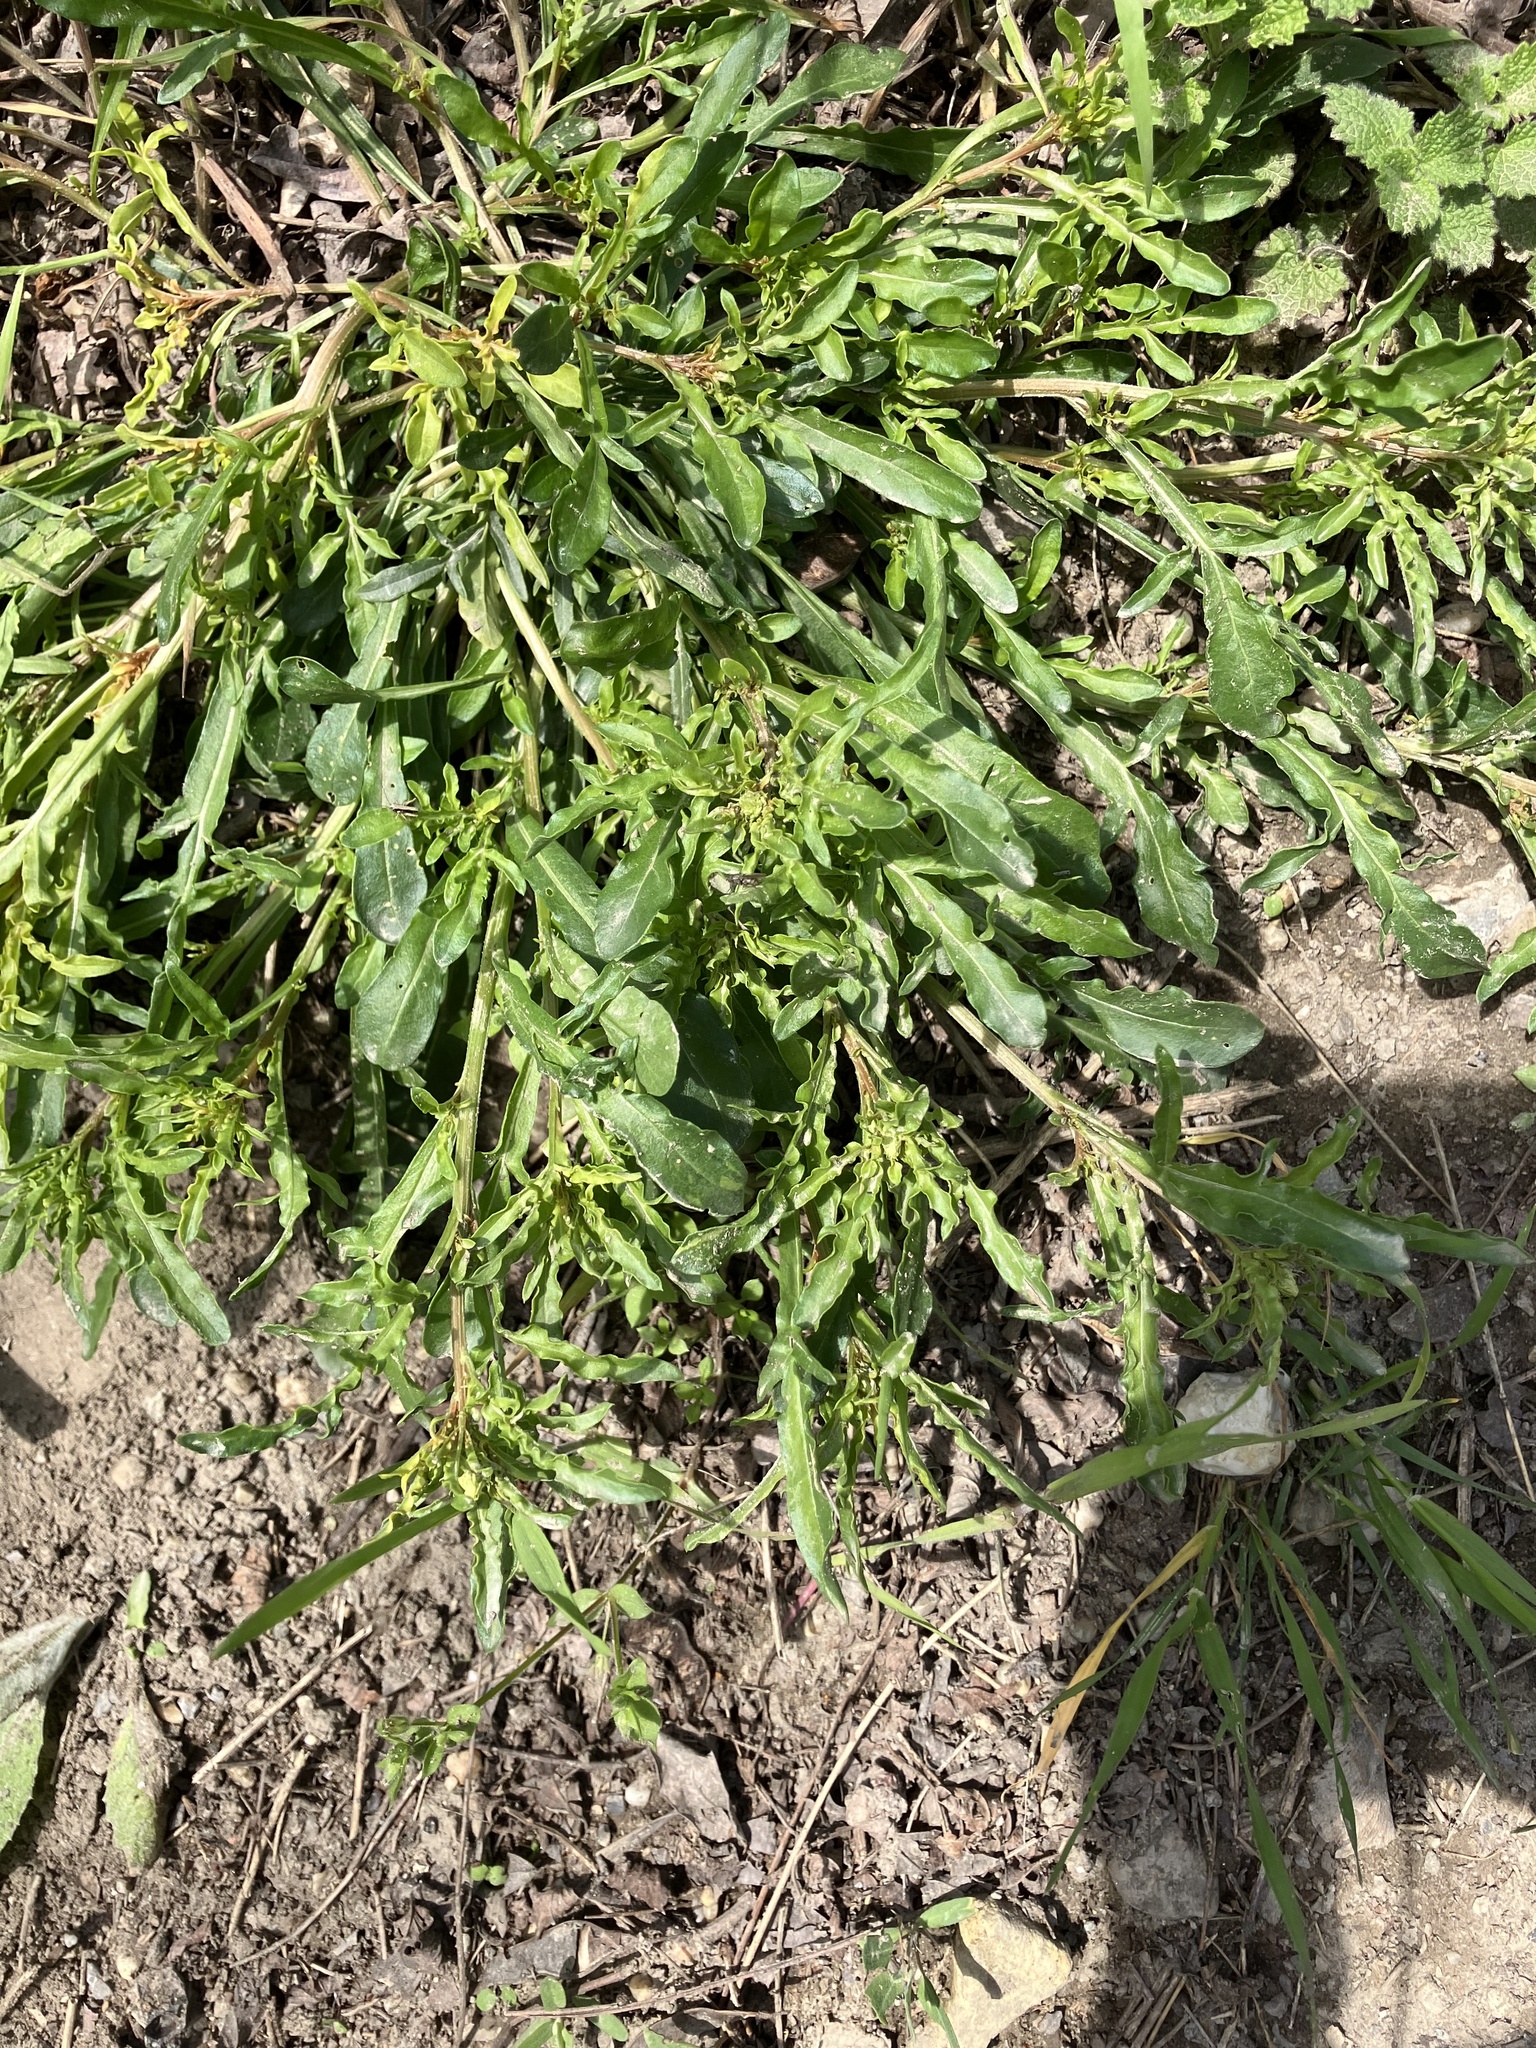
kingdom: Plantae
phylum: Tracheophyta
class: Magnoliopsida
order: Brassicales
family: Resedaceae
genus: Reseda
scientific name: Reseda lutea
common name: Wild mignonette
